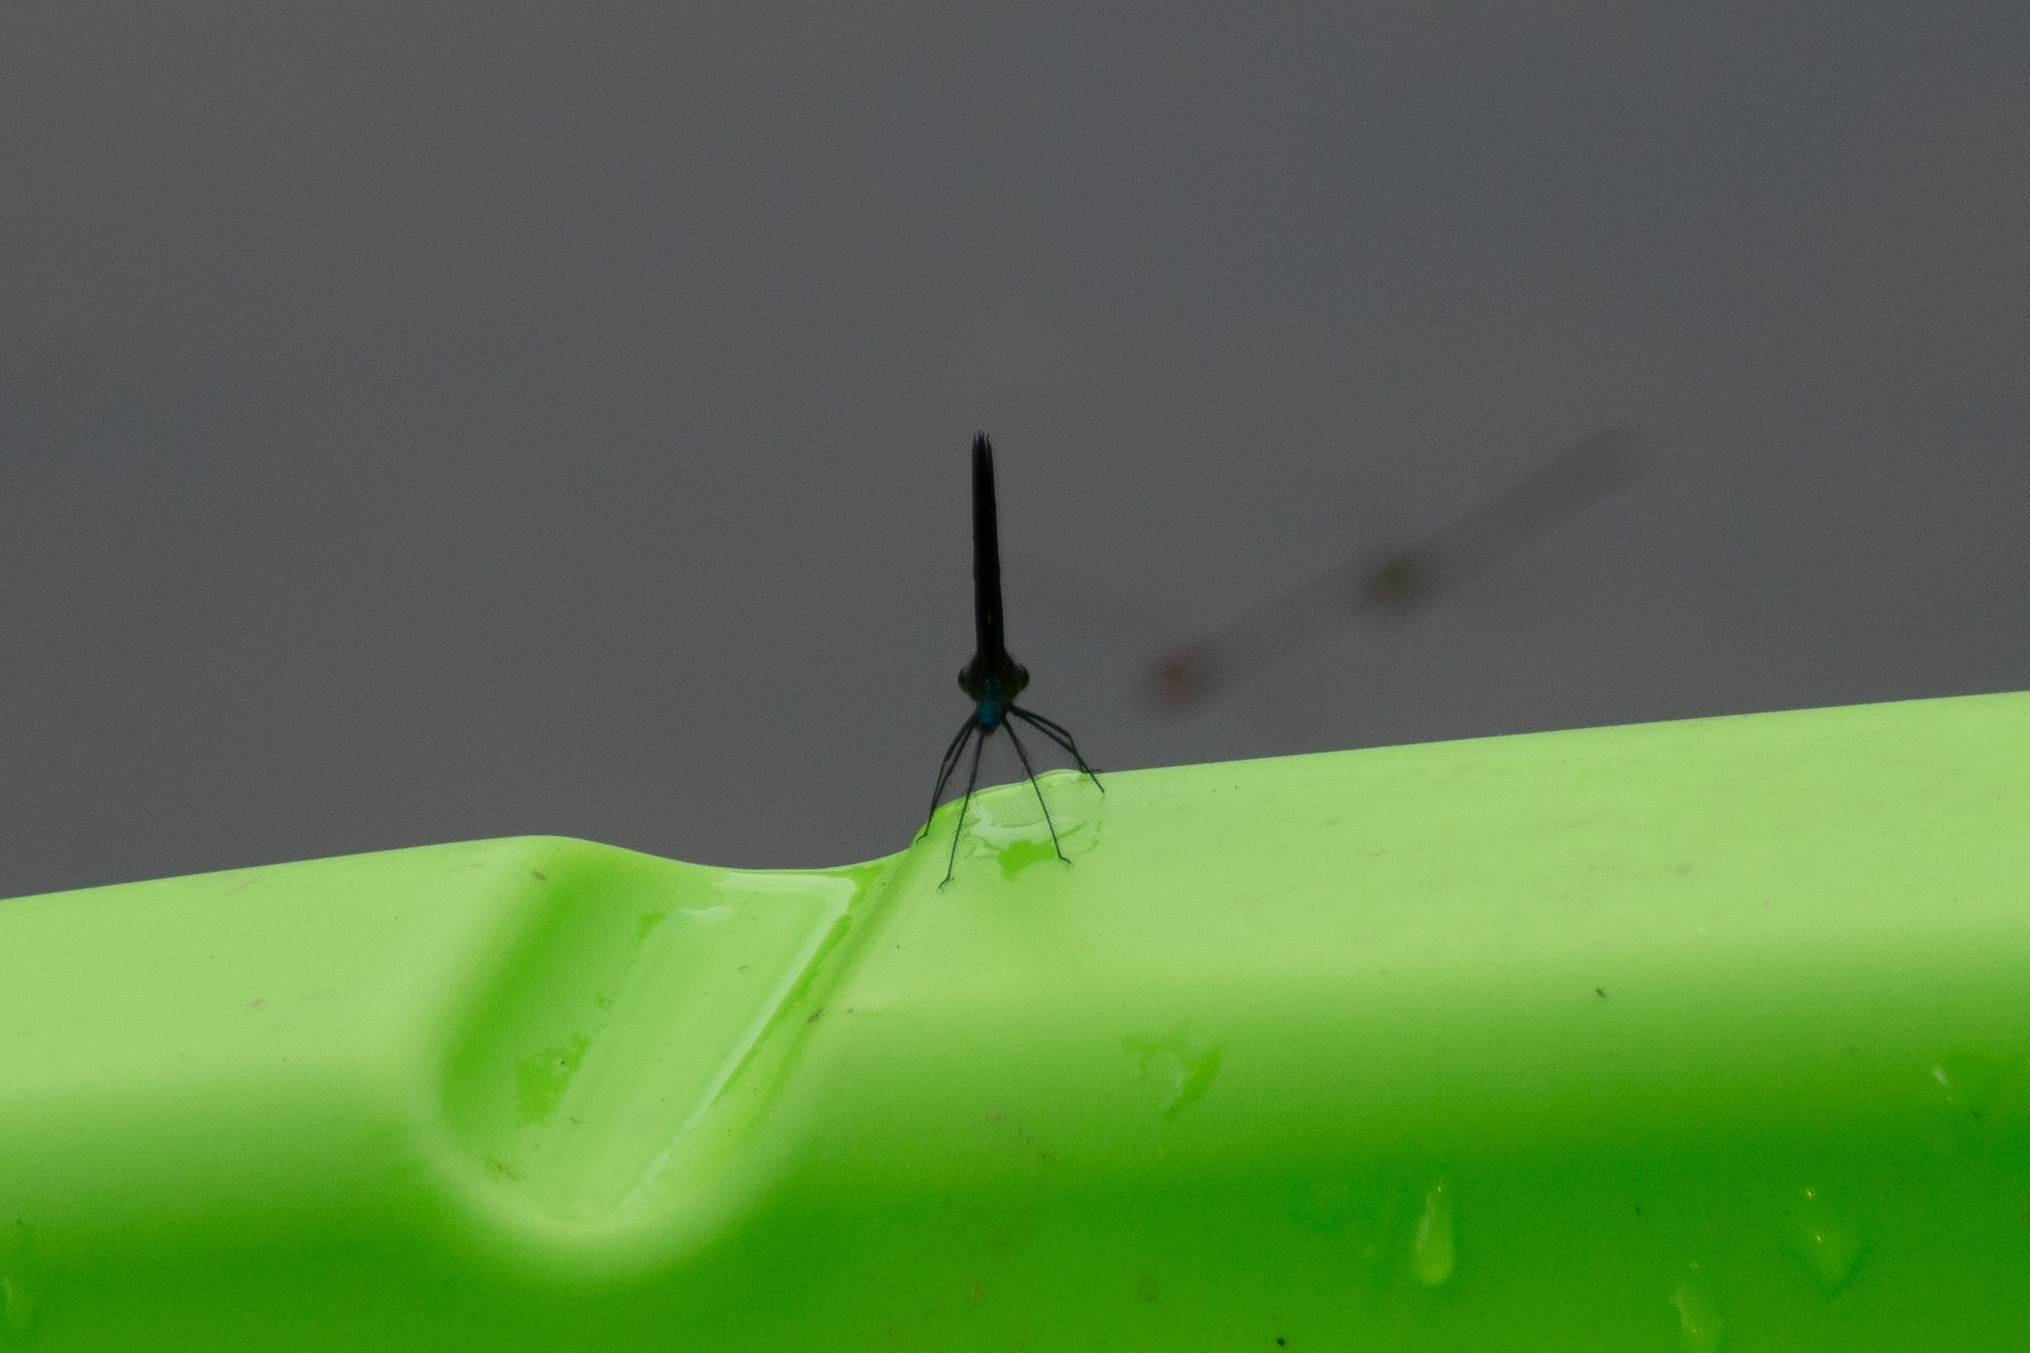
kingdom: Animalia
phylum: Arthropoda
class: Insecta
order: Odonata
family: Calopterygidae
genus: Calopteryx
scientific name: Calopteryx maculata
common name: Ebony jewelwing
